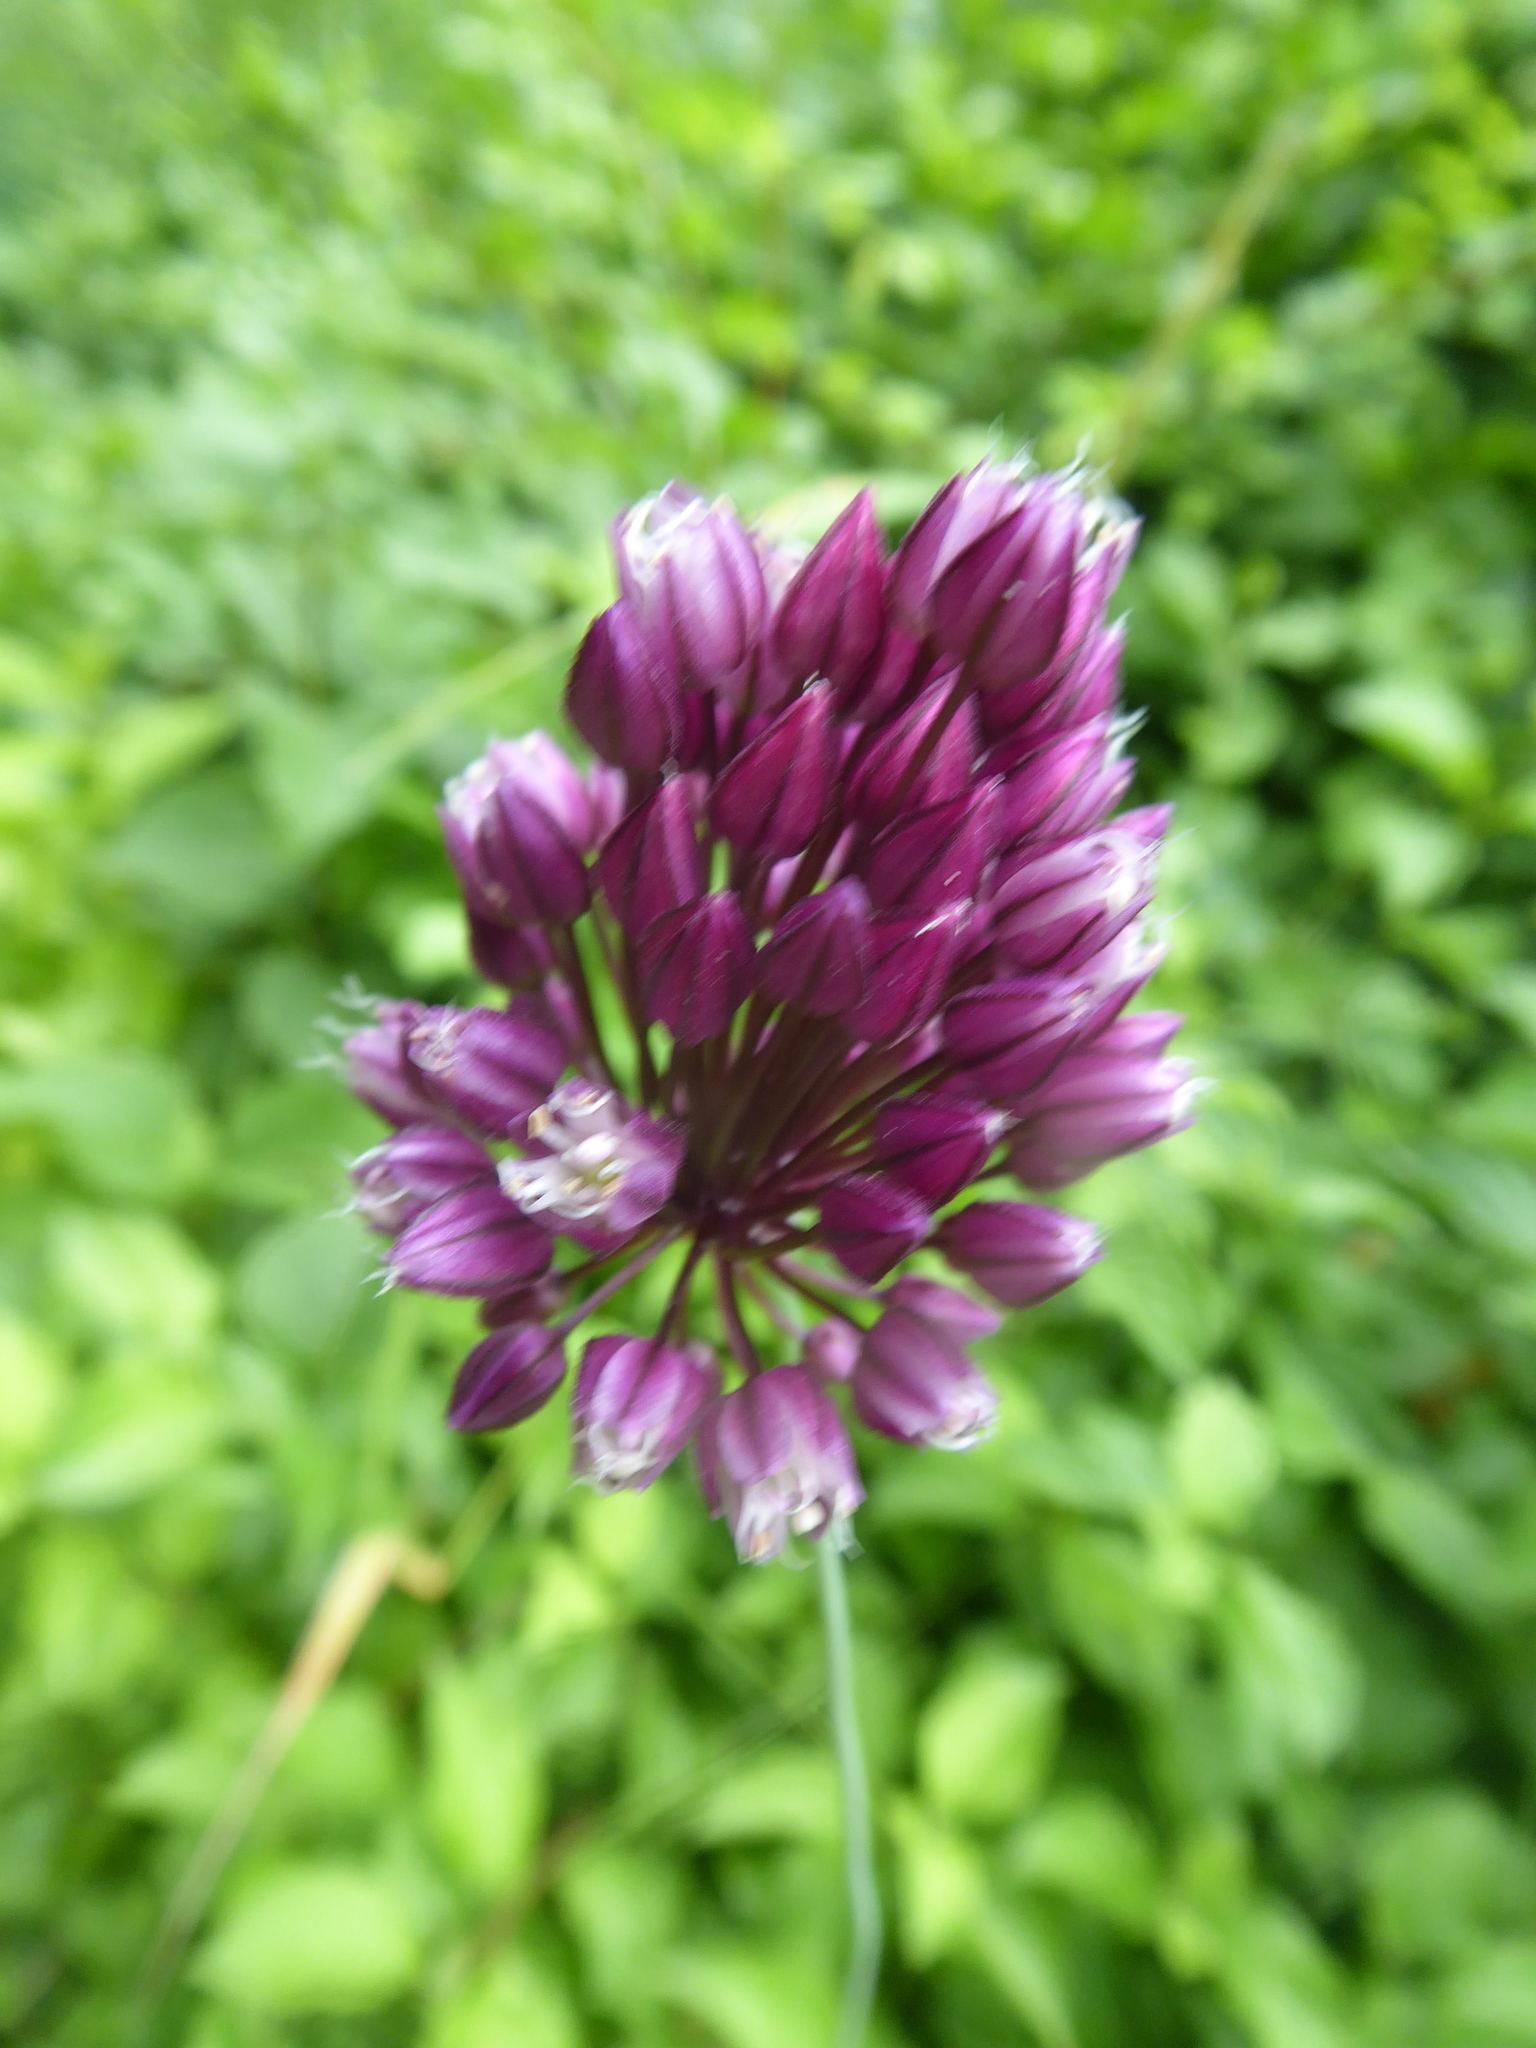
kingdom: Plantae
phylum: Tracheophyta
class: Liliopsida
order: Asparagales
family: Amaryllidaceae
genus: Allium
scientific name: Allium rotundum
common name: Sand leek
